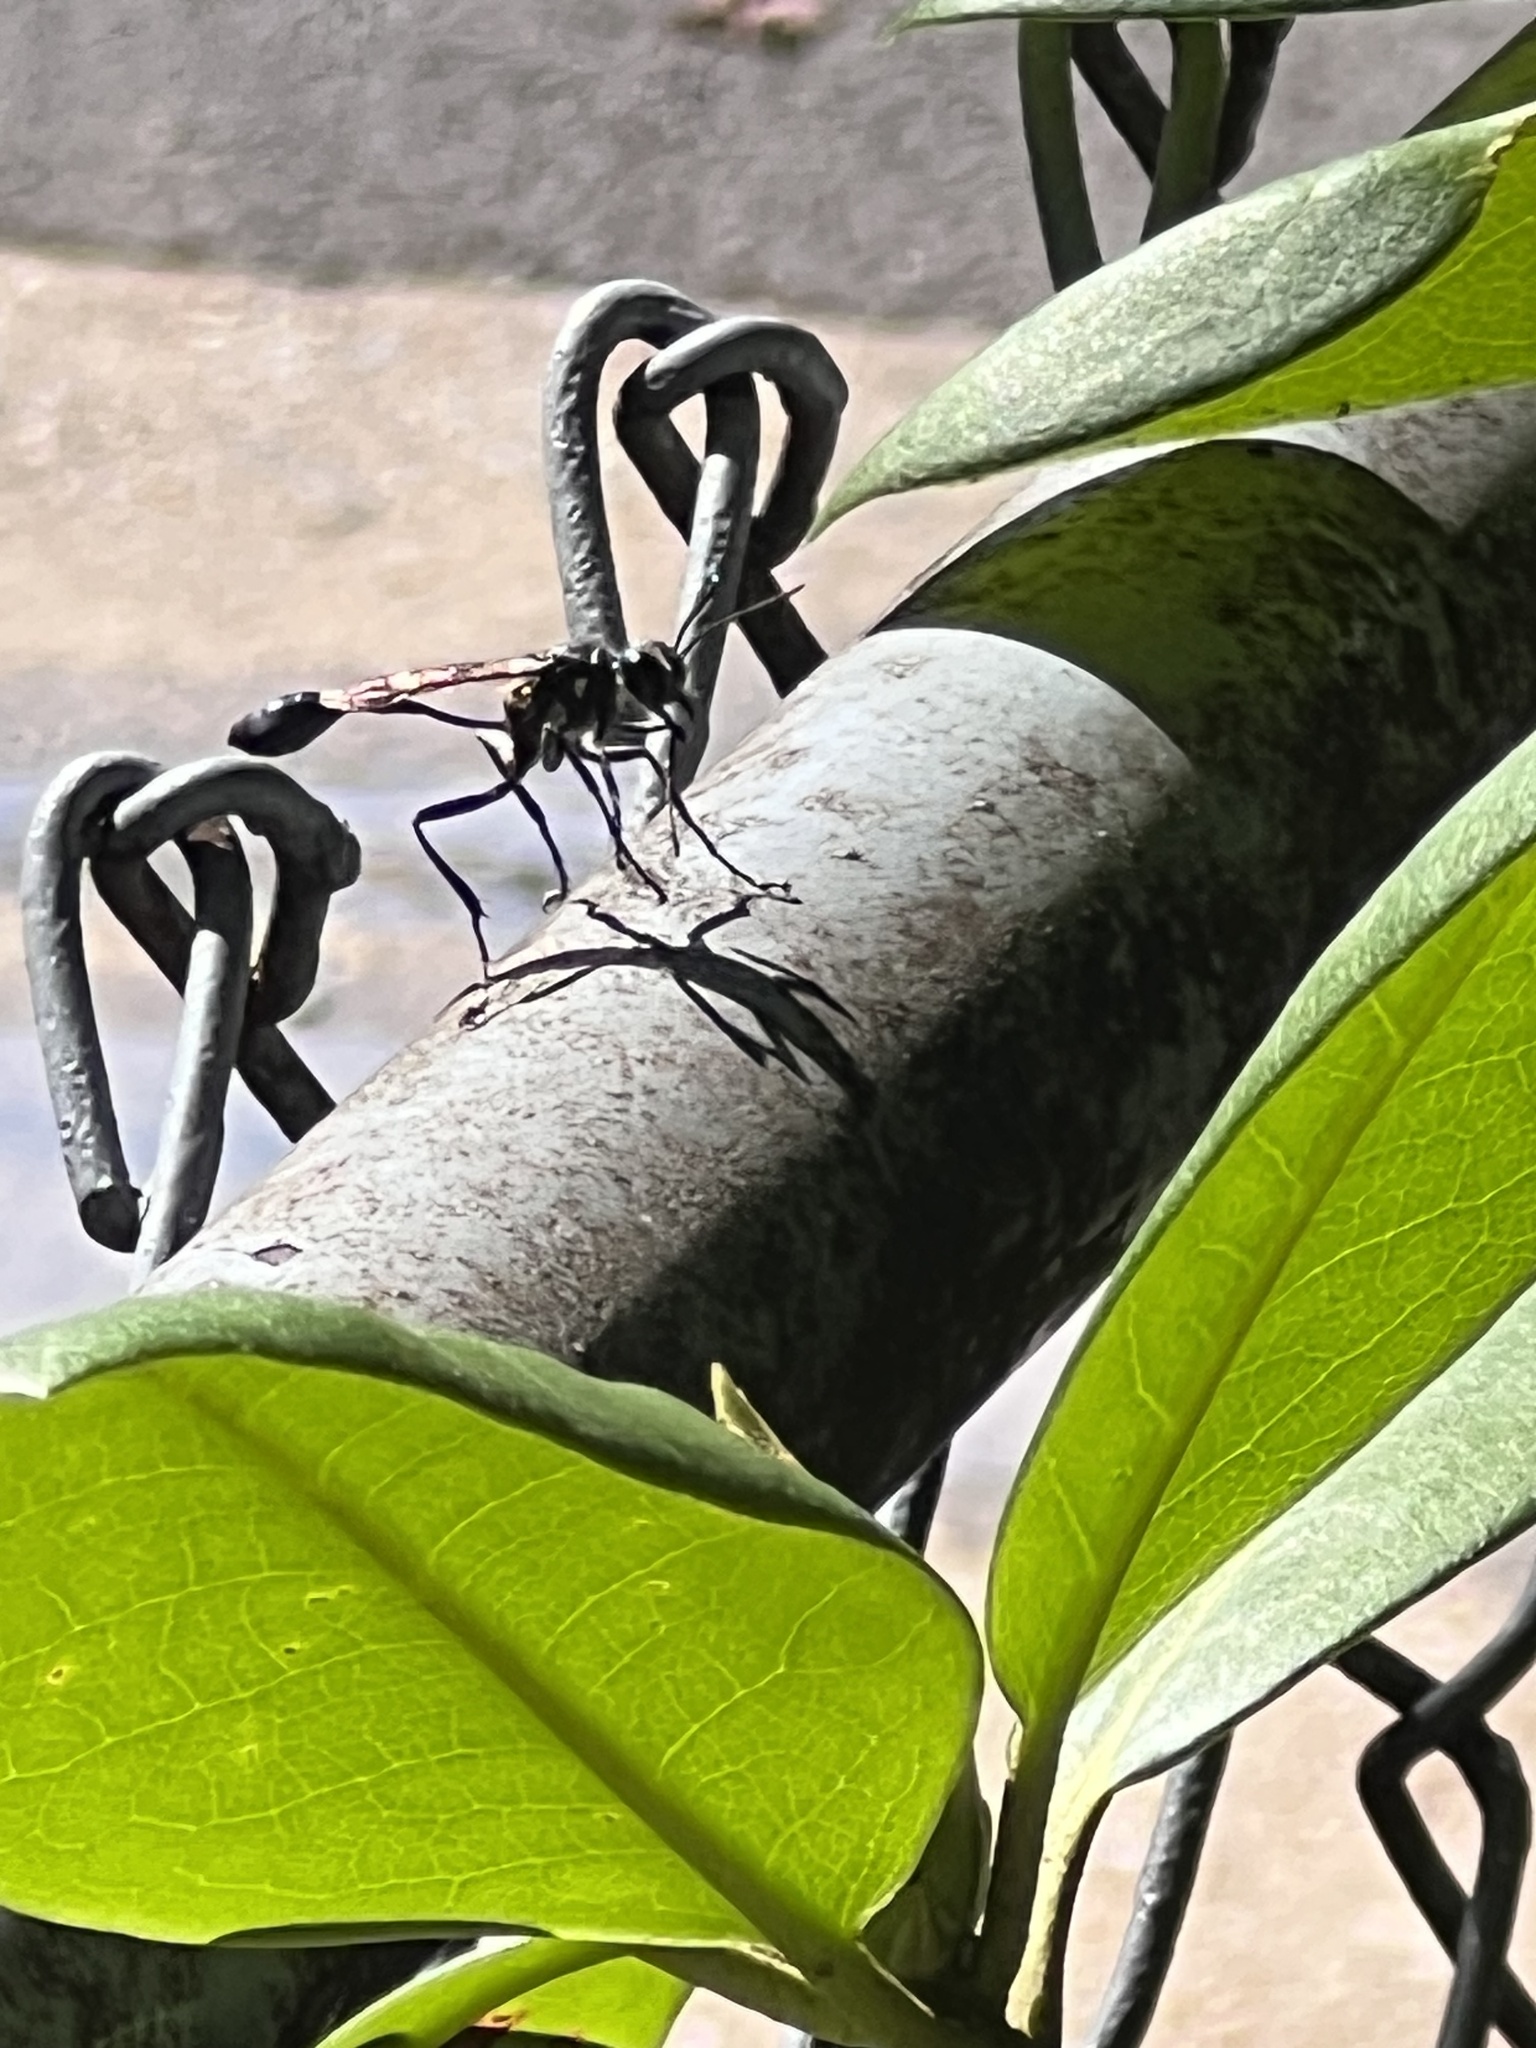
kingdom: Animalia
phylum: Arthropoda
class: Insecta
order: Hymenoptera
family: Sphecidae
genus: Eremnophila
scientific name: Eremnophila aureonotata
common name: Gold-marked thread-waisted wasp
